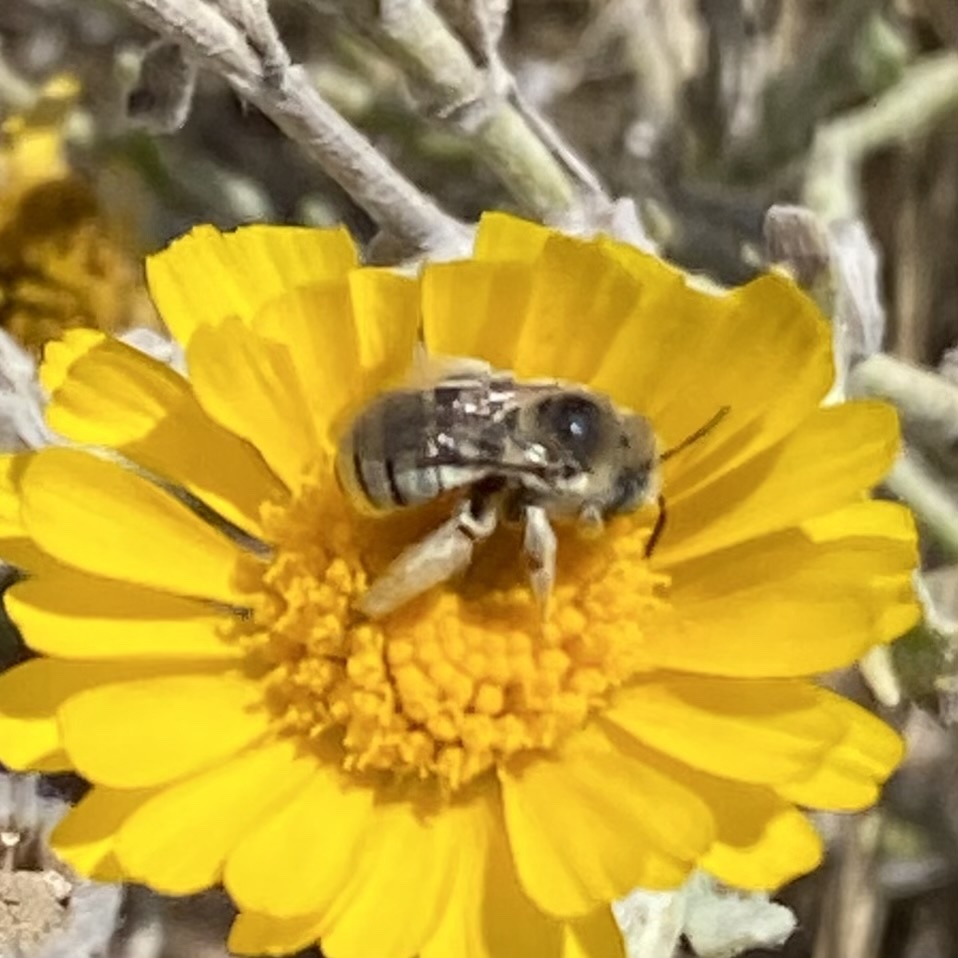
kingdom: Animalia
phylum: Arthropoda
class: Insecta
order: Hymenoptera
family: Apidae
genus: Melissodes
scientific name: Melissodes
